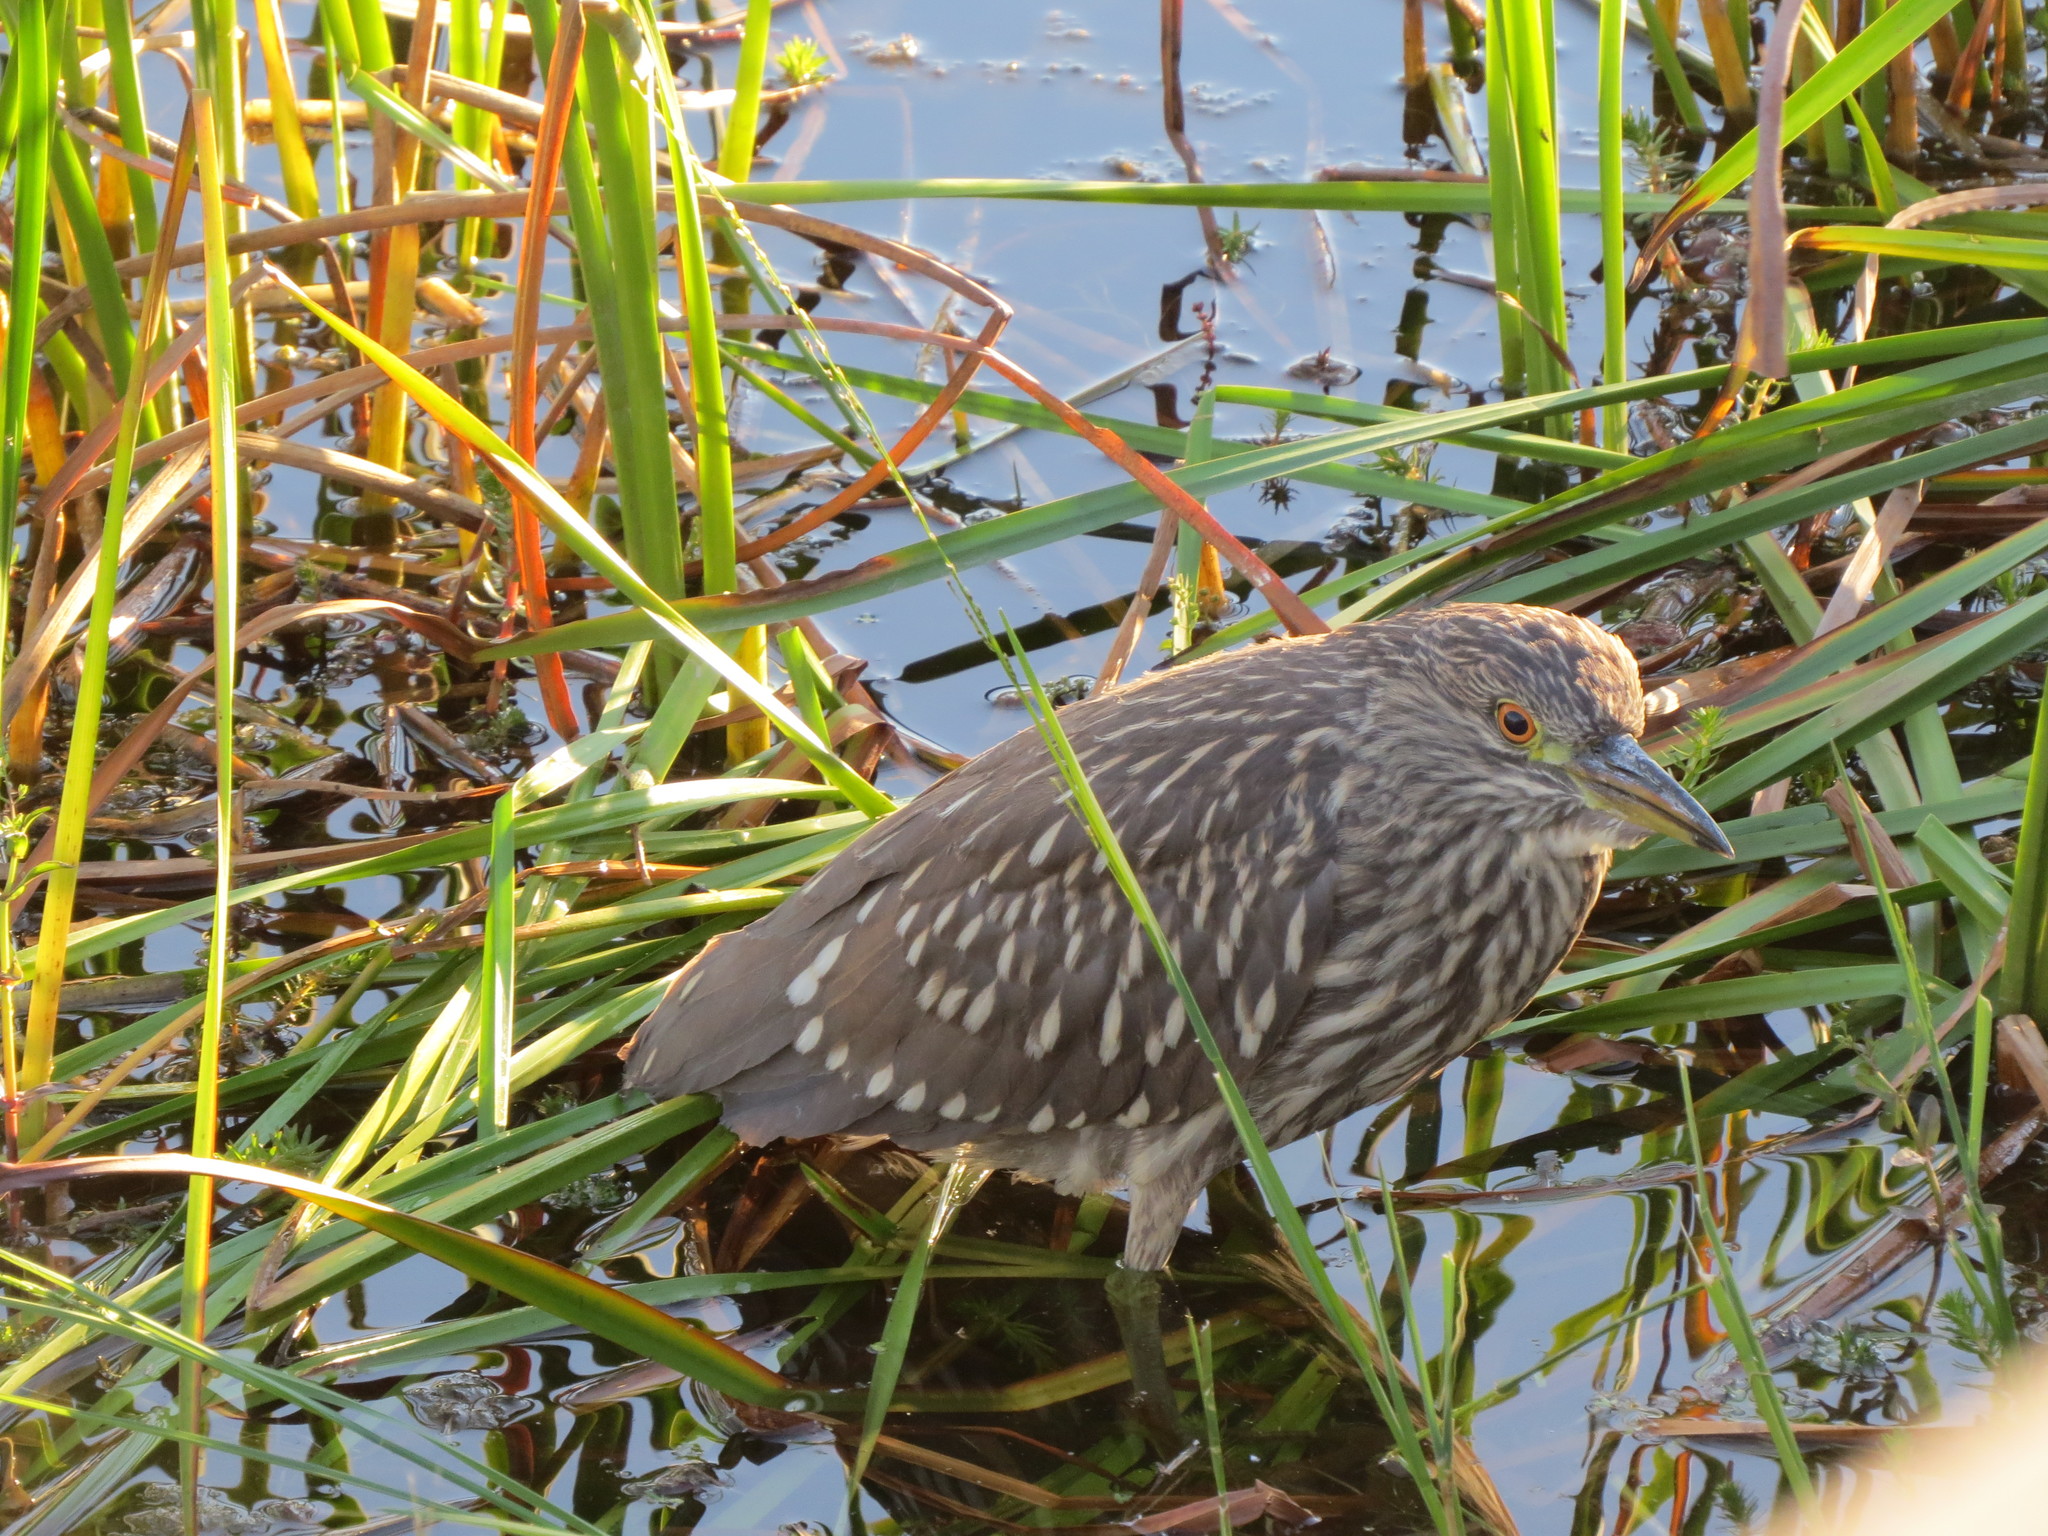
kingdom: Animalia
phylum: Chordata
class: Aves
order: Pelecaniformes
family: Ardeidae
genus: Nycticorax
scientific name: Nycticorax nycticorax
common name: Black-crowned night heron
